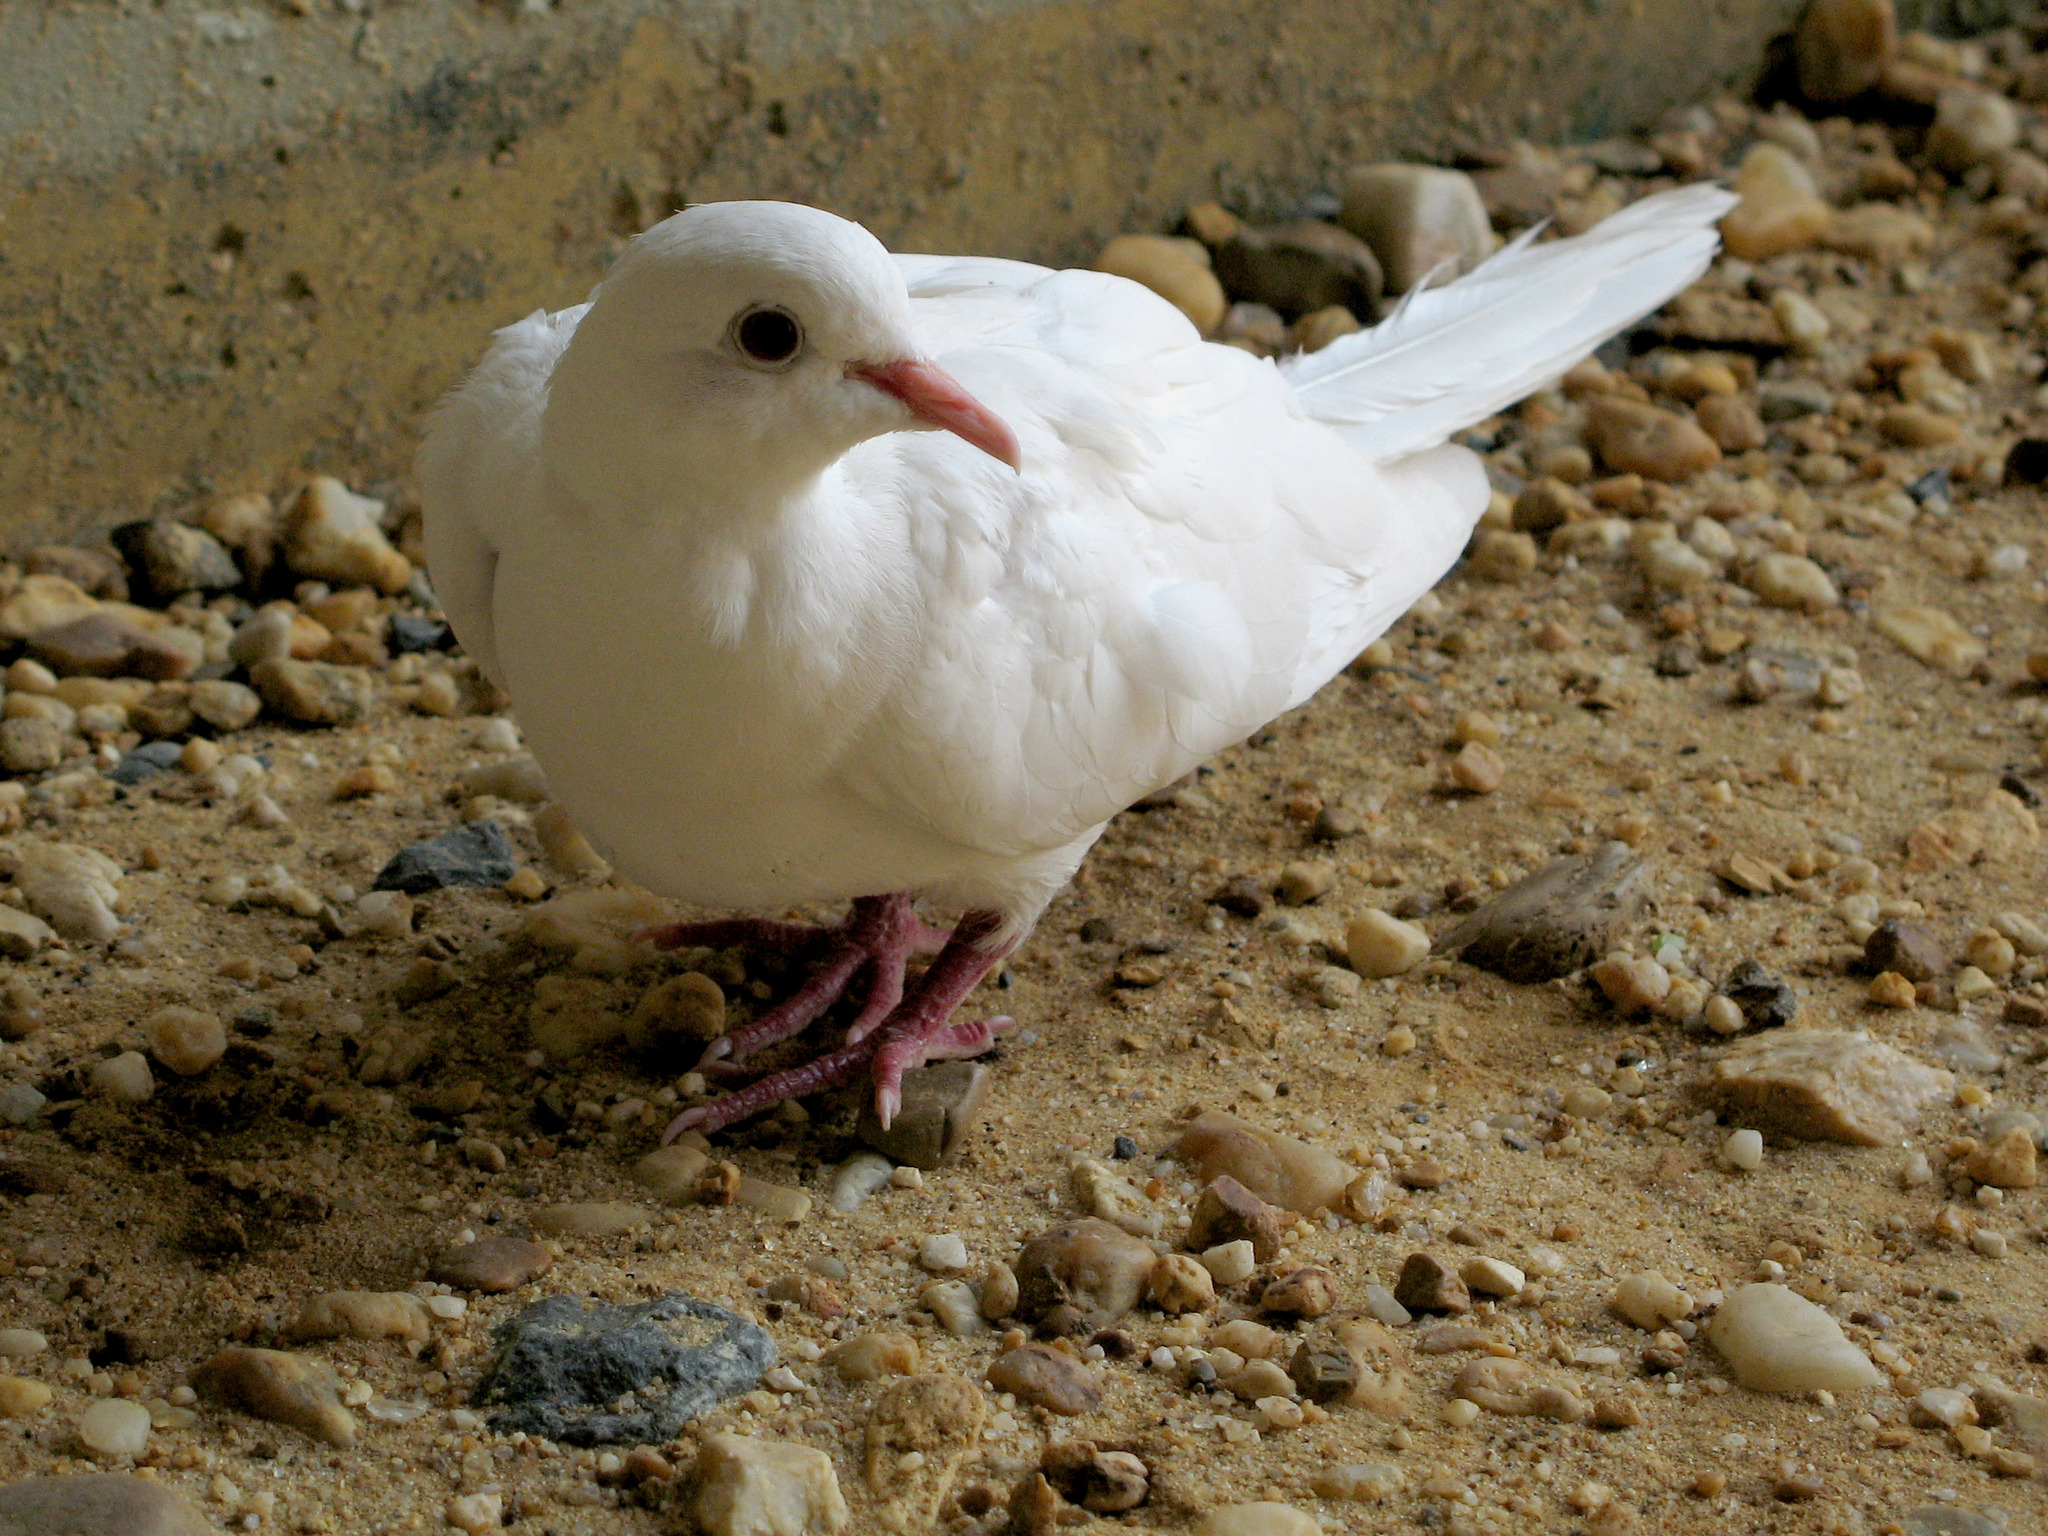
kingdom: Animalia
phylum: Chordata
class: Aves
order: Columbiformes
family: Columbidae
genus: Columba
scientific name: Columba livia
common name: Rock pigeon
